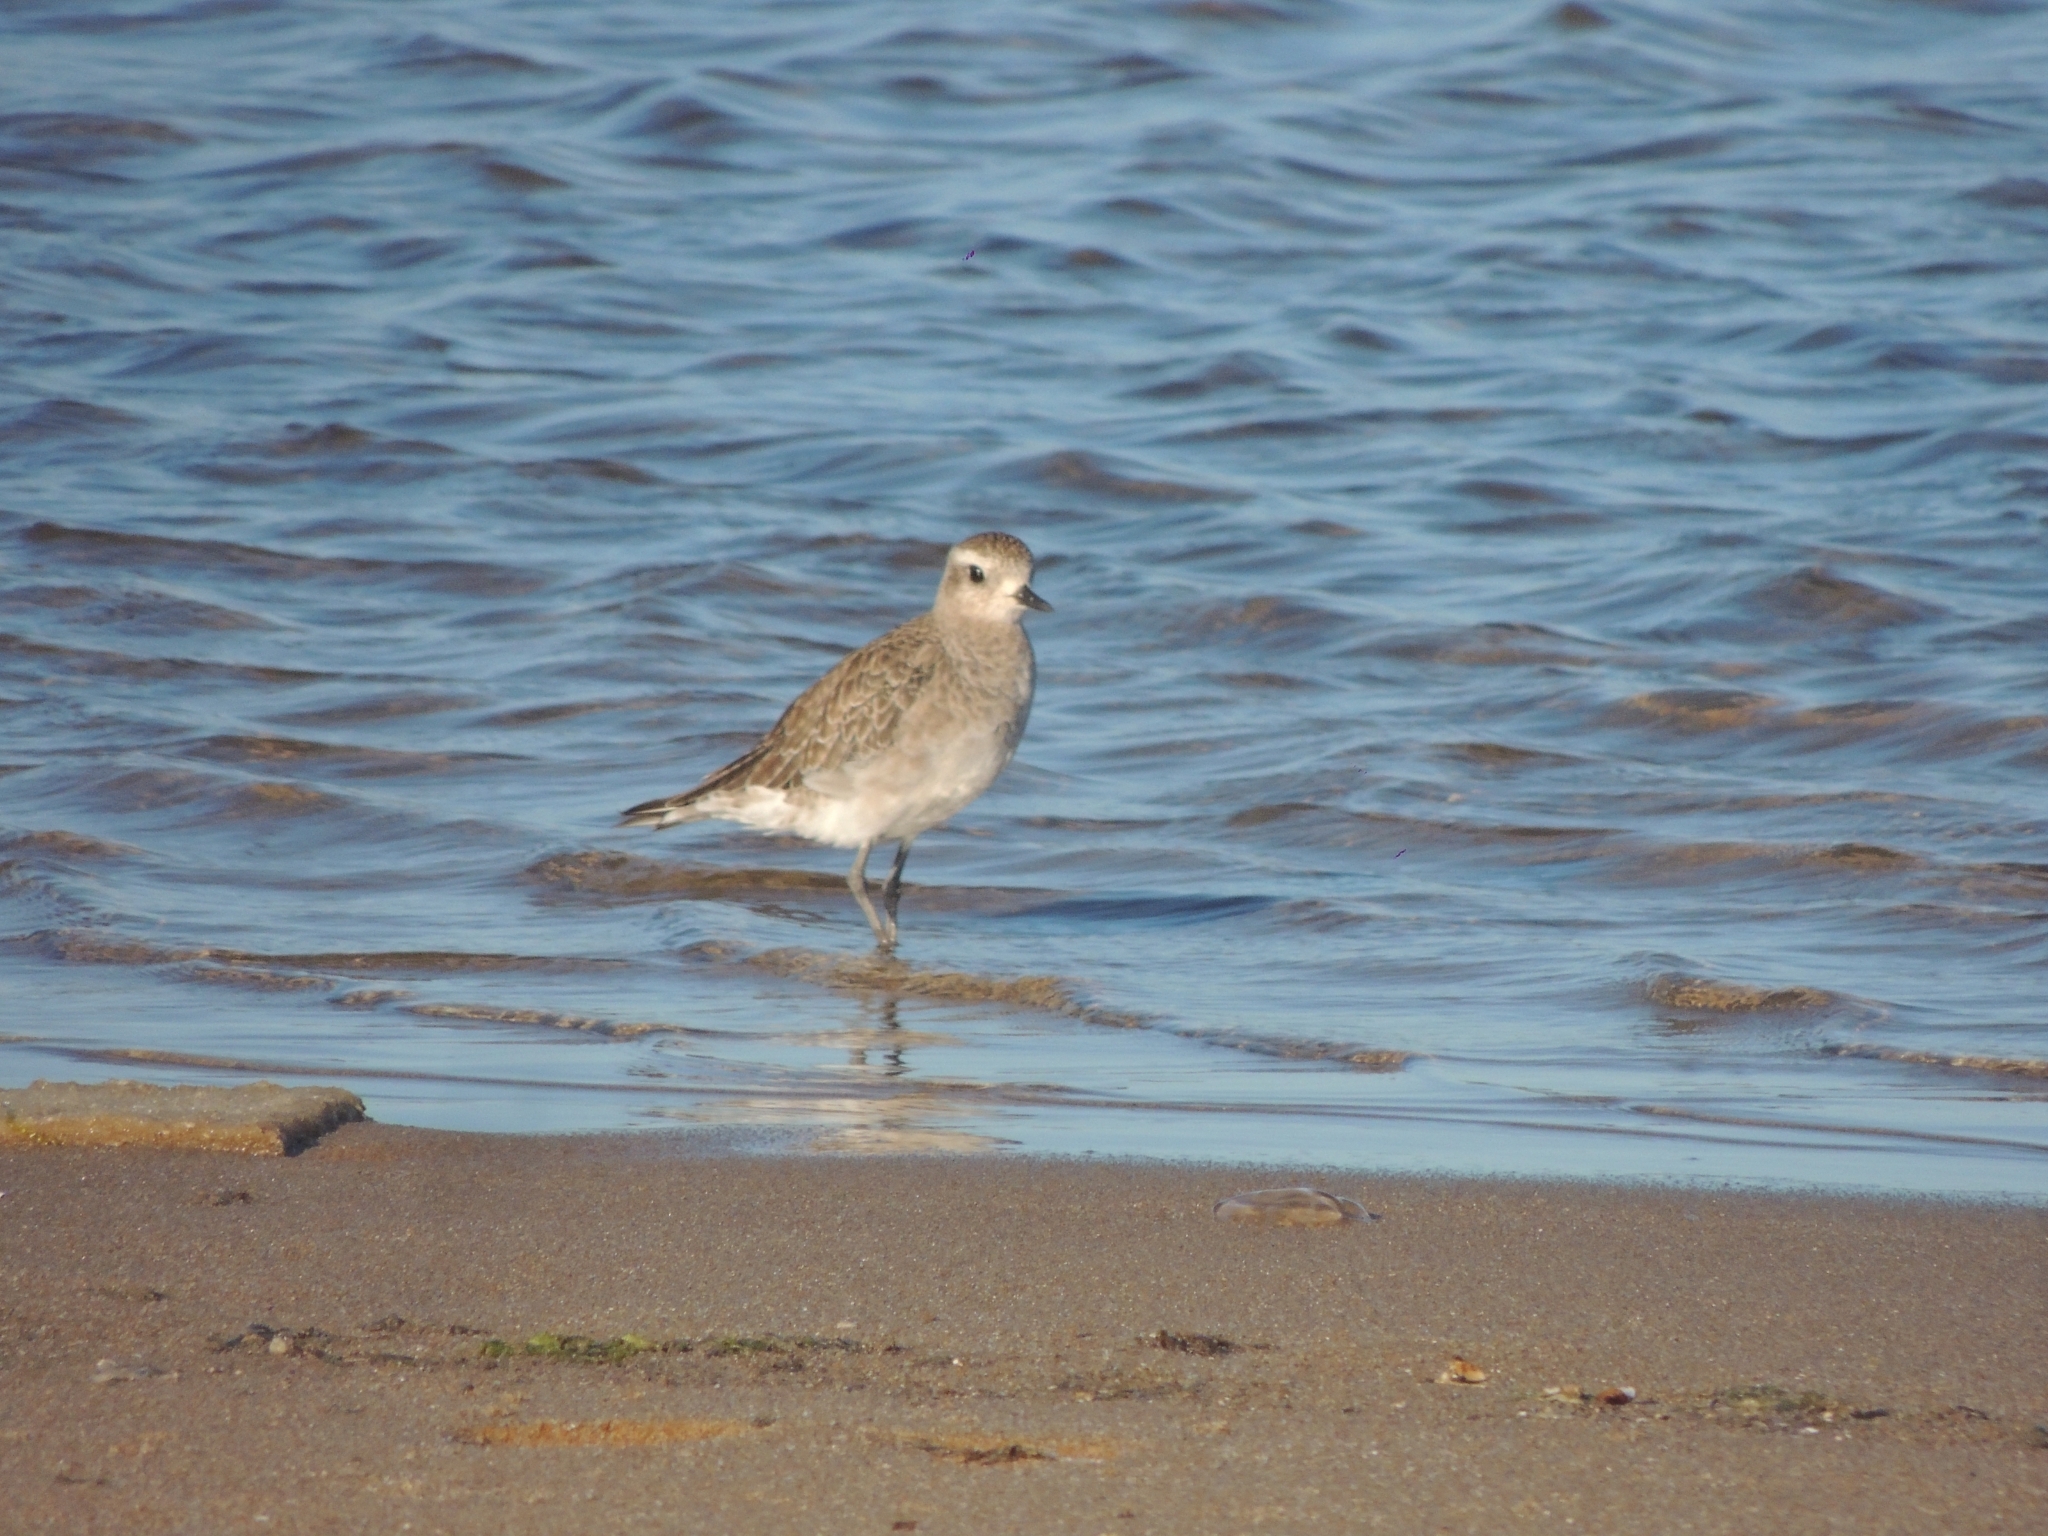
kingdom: Animalia
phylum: Chordata
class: Aves
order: Charadriiformes
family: Charadriidae
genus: Pluvialis
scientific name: Pluvialis dominica
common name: American golden plover
